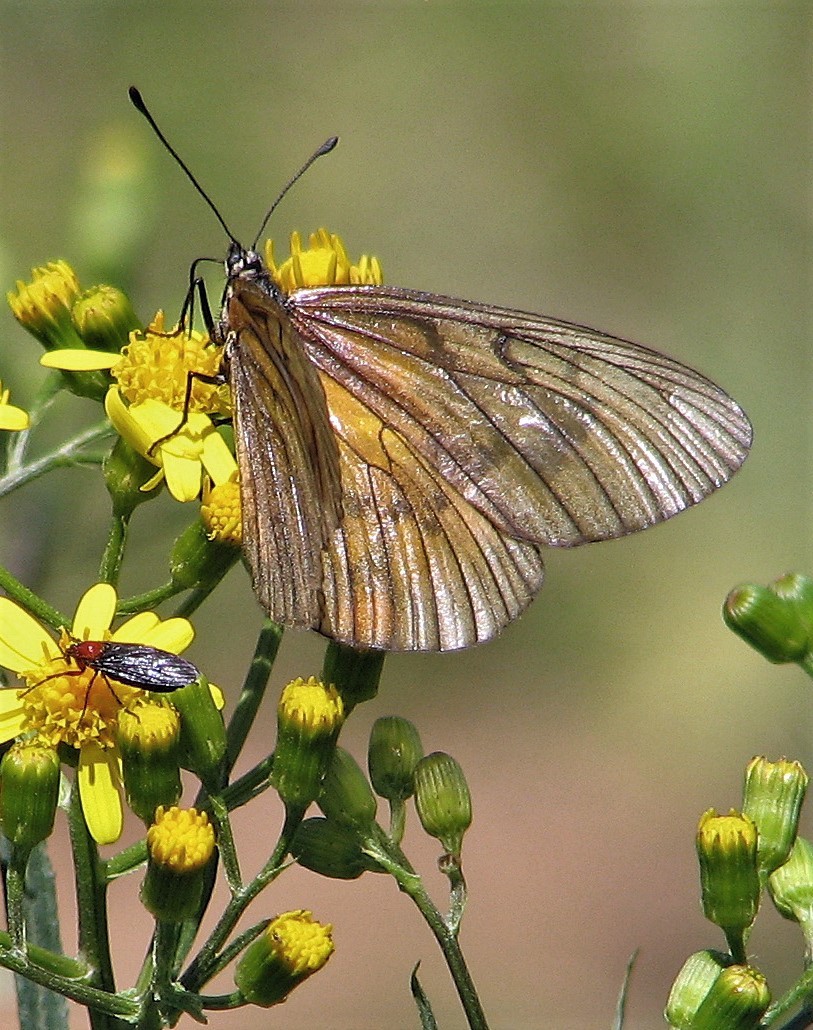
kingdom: Animalia
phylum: Arthropoda
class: Insecta
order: Lepidoptera
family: Nymphalidae
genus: Acraea
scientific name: Acraea momina
